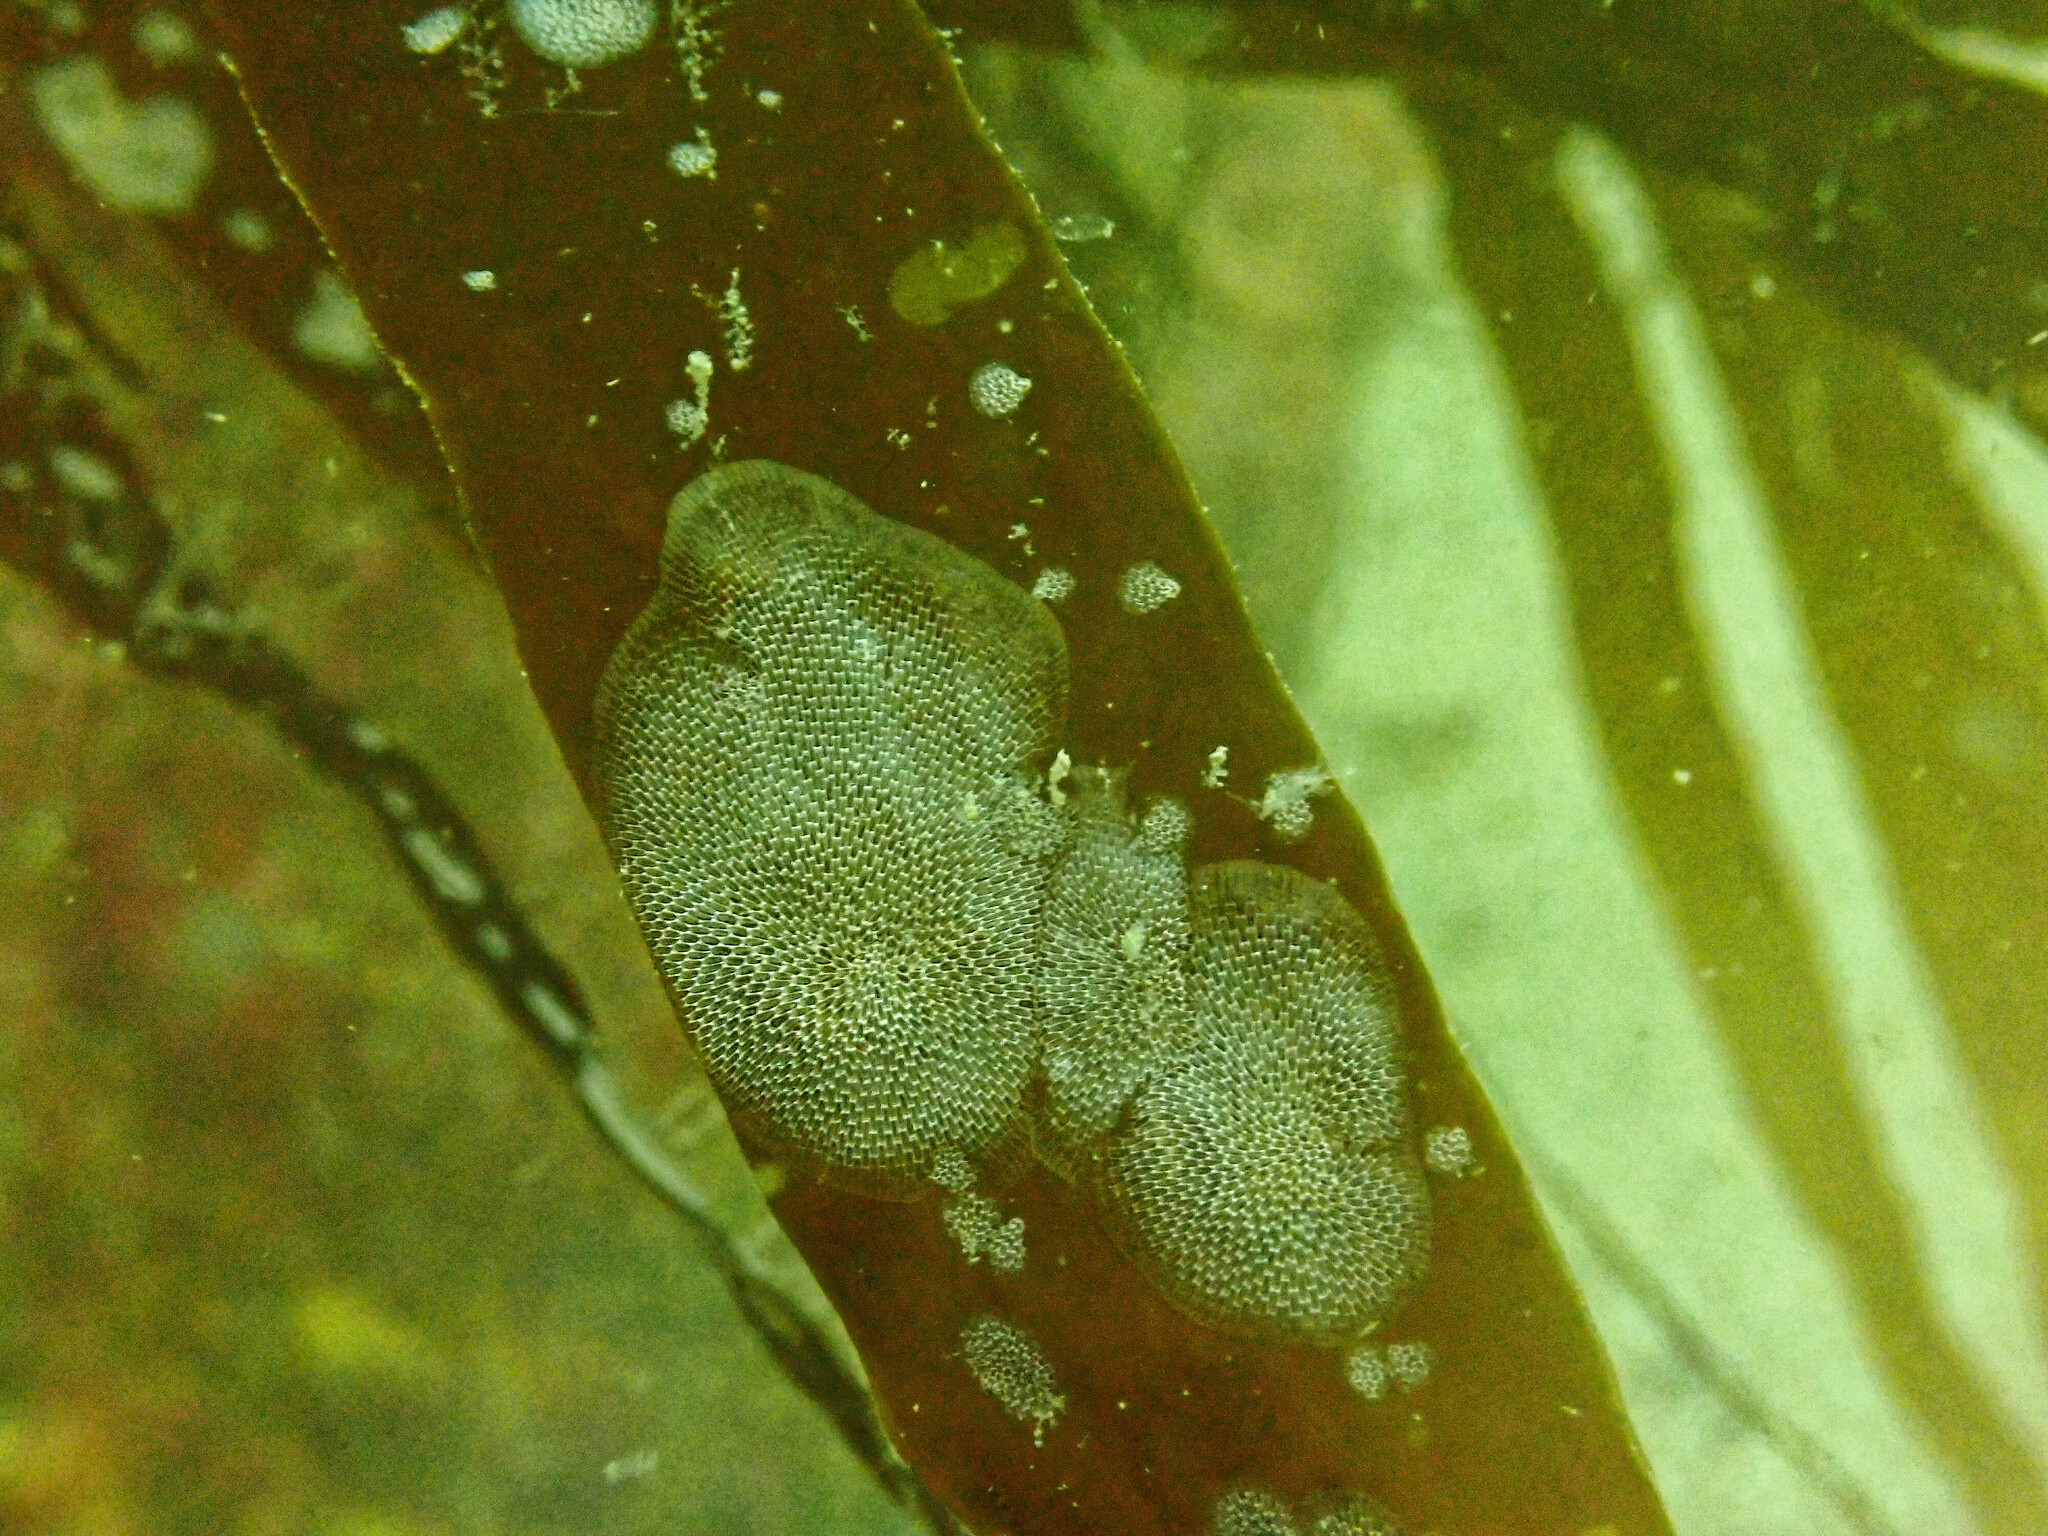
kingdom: Animalia
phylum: Bryozoa
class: Gymnolaemata
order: Cheilostomatida
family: Membraniporidae
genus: Membranipora
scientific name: Membranipora membranacea
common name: Sea mat
